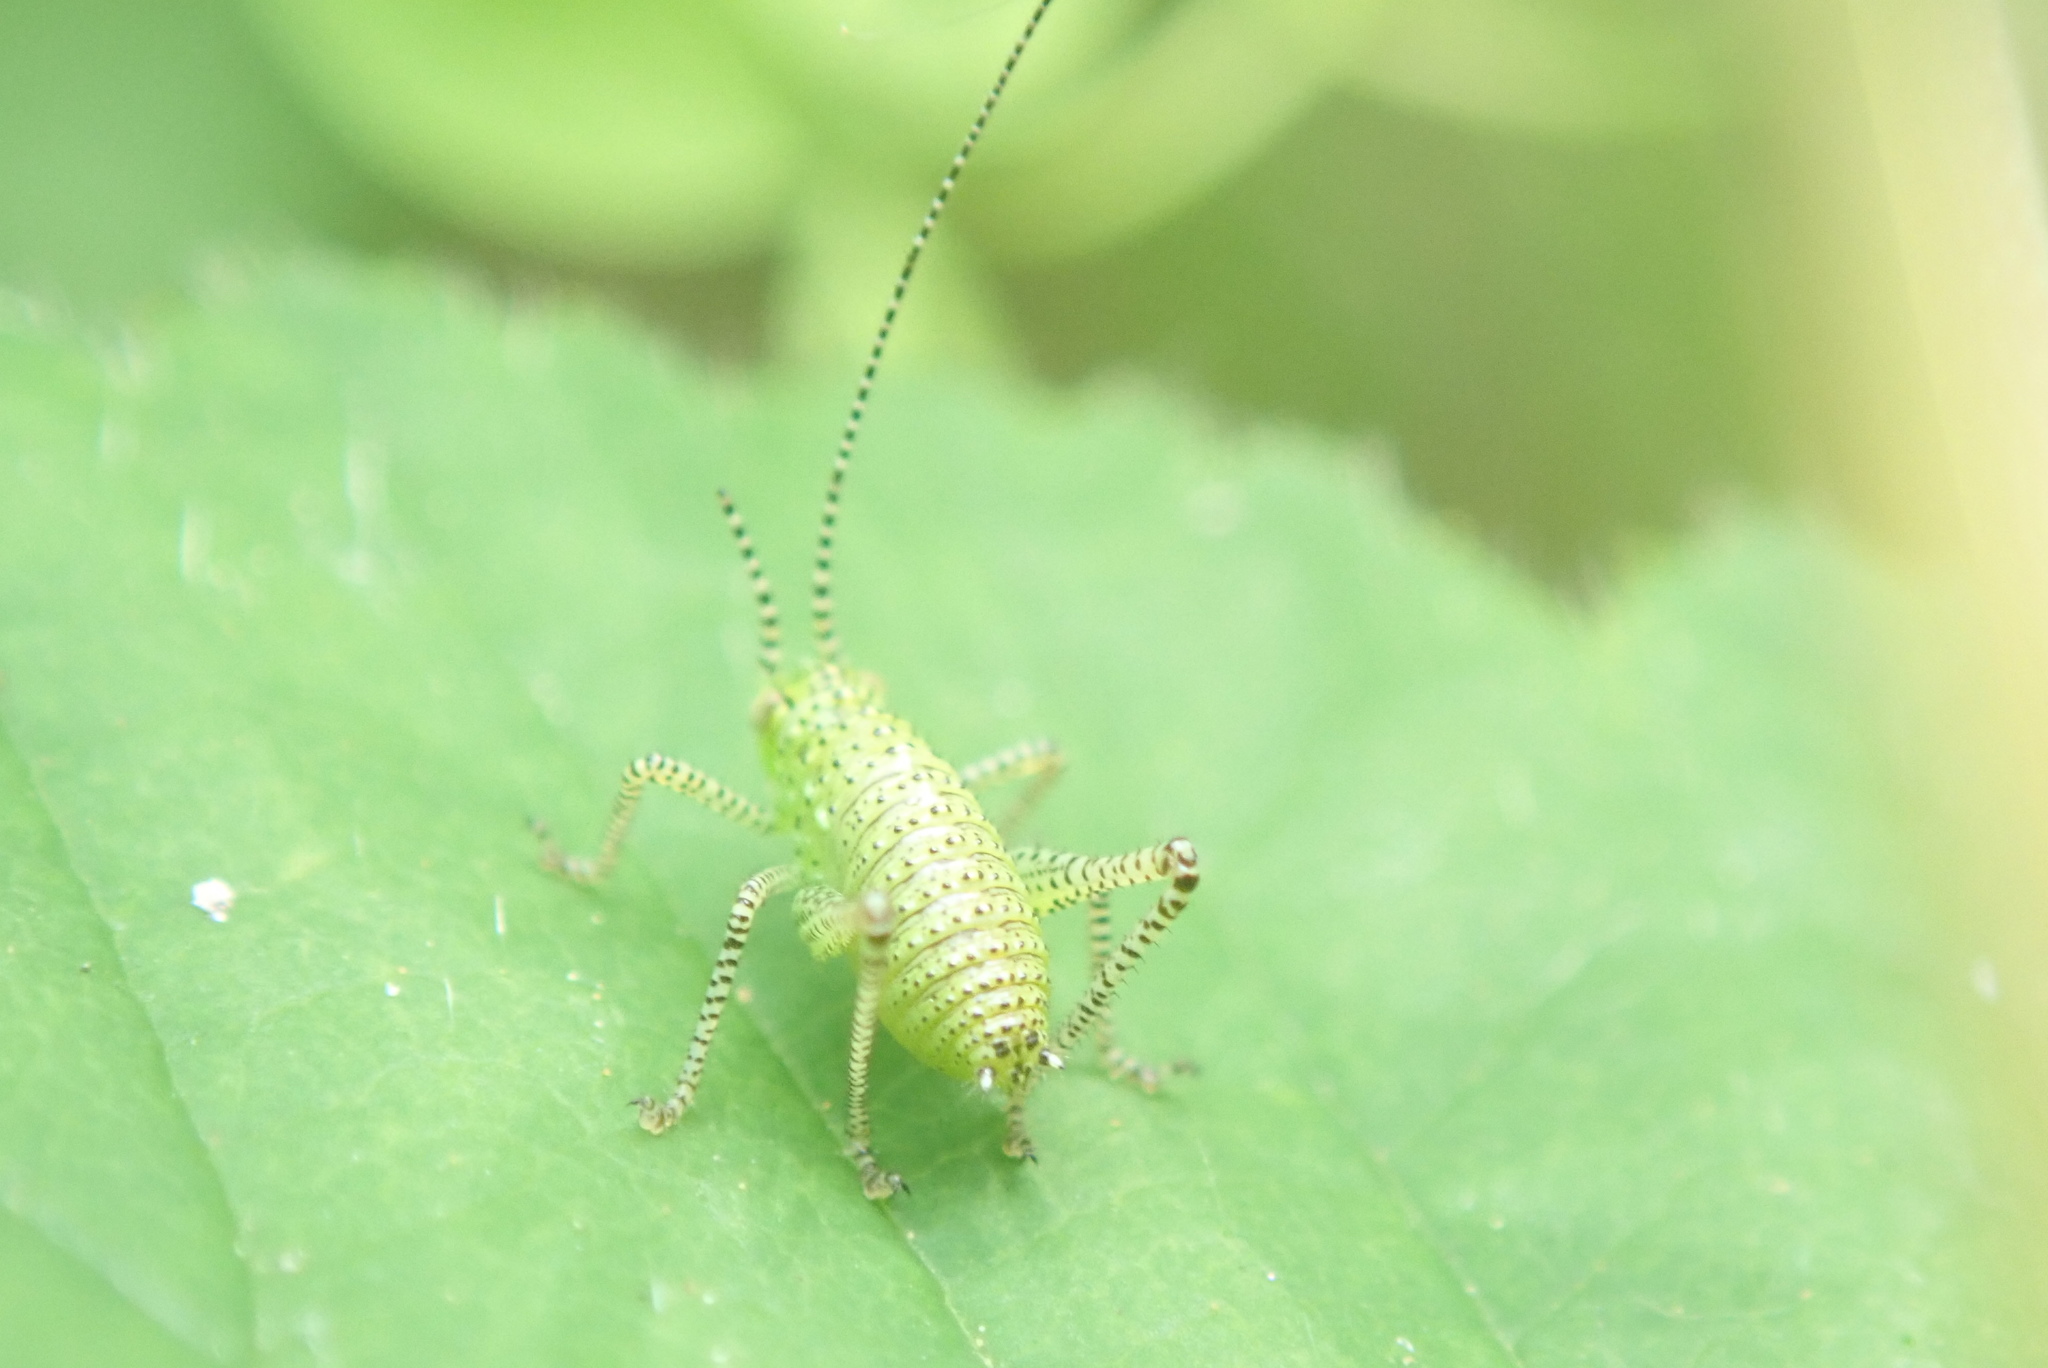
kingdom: Animalia
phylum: Arthropoda
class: Insecta
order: Orthoptera
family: Tettigoniidae
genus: Leptophyes
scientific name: Leptophyes punctatissima
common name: Speckled bush-cricket
